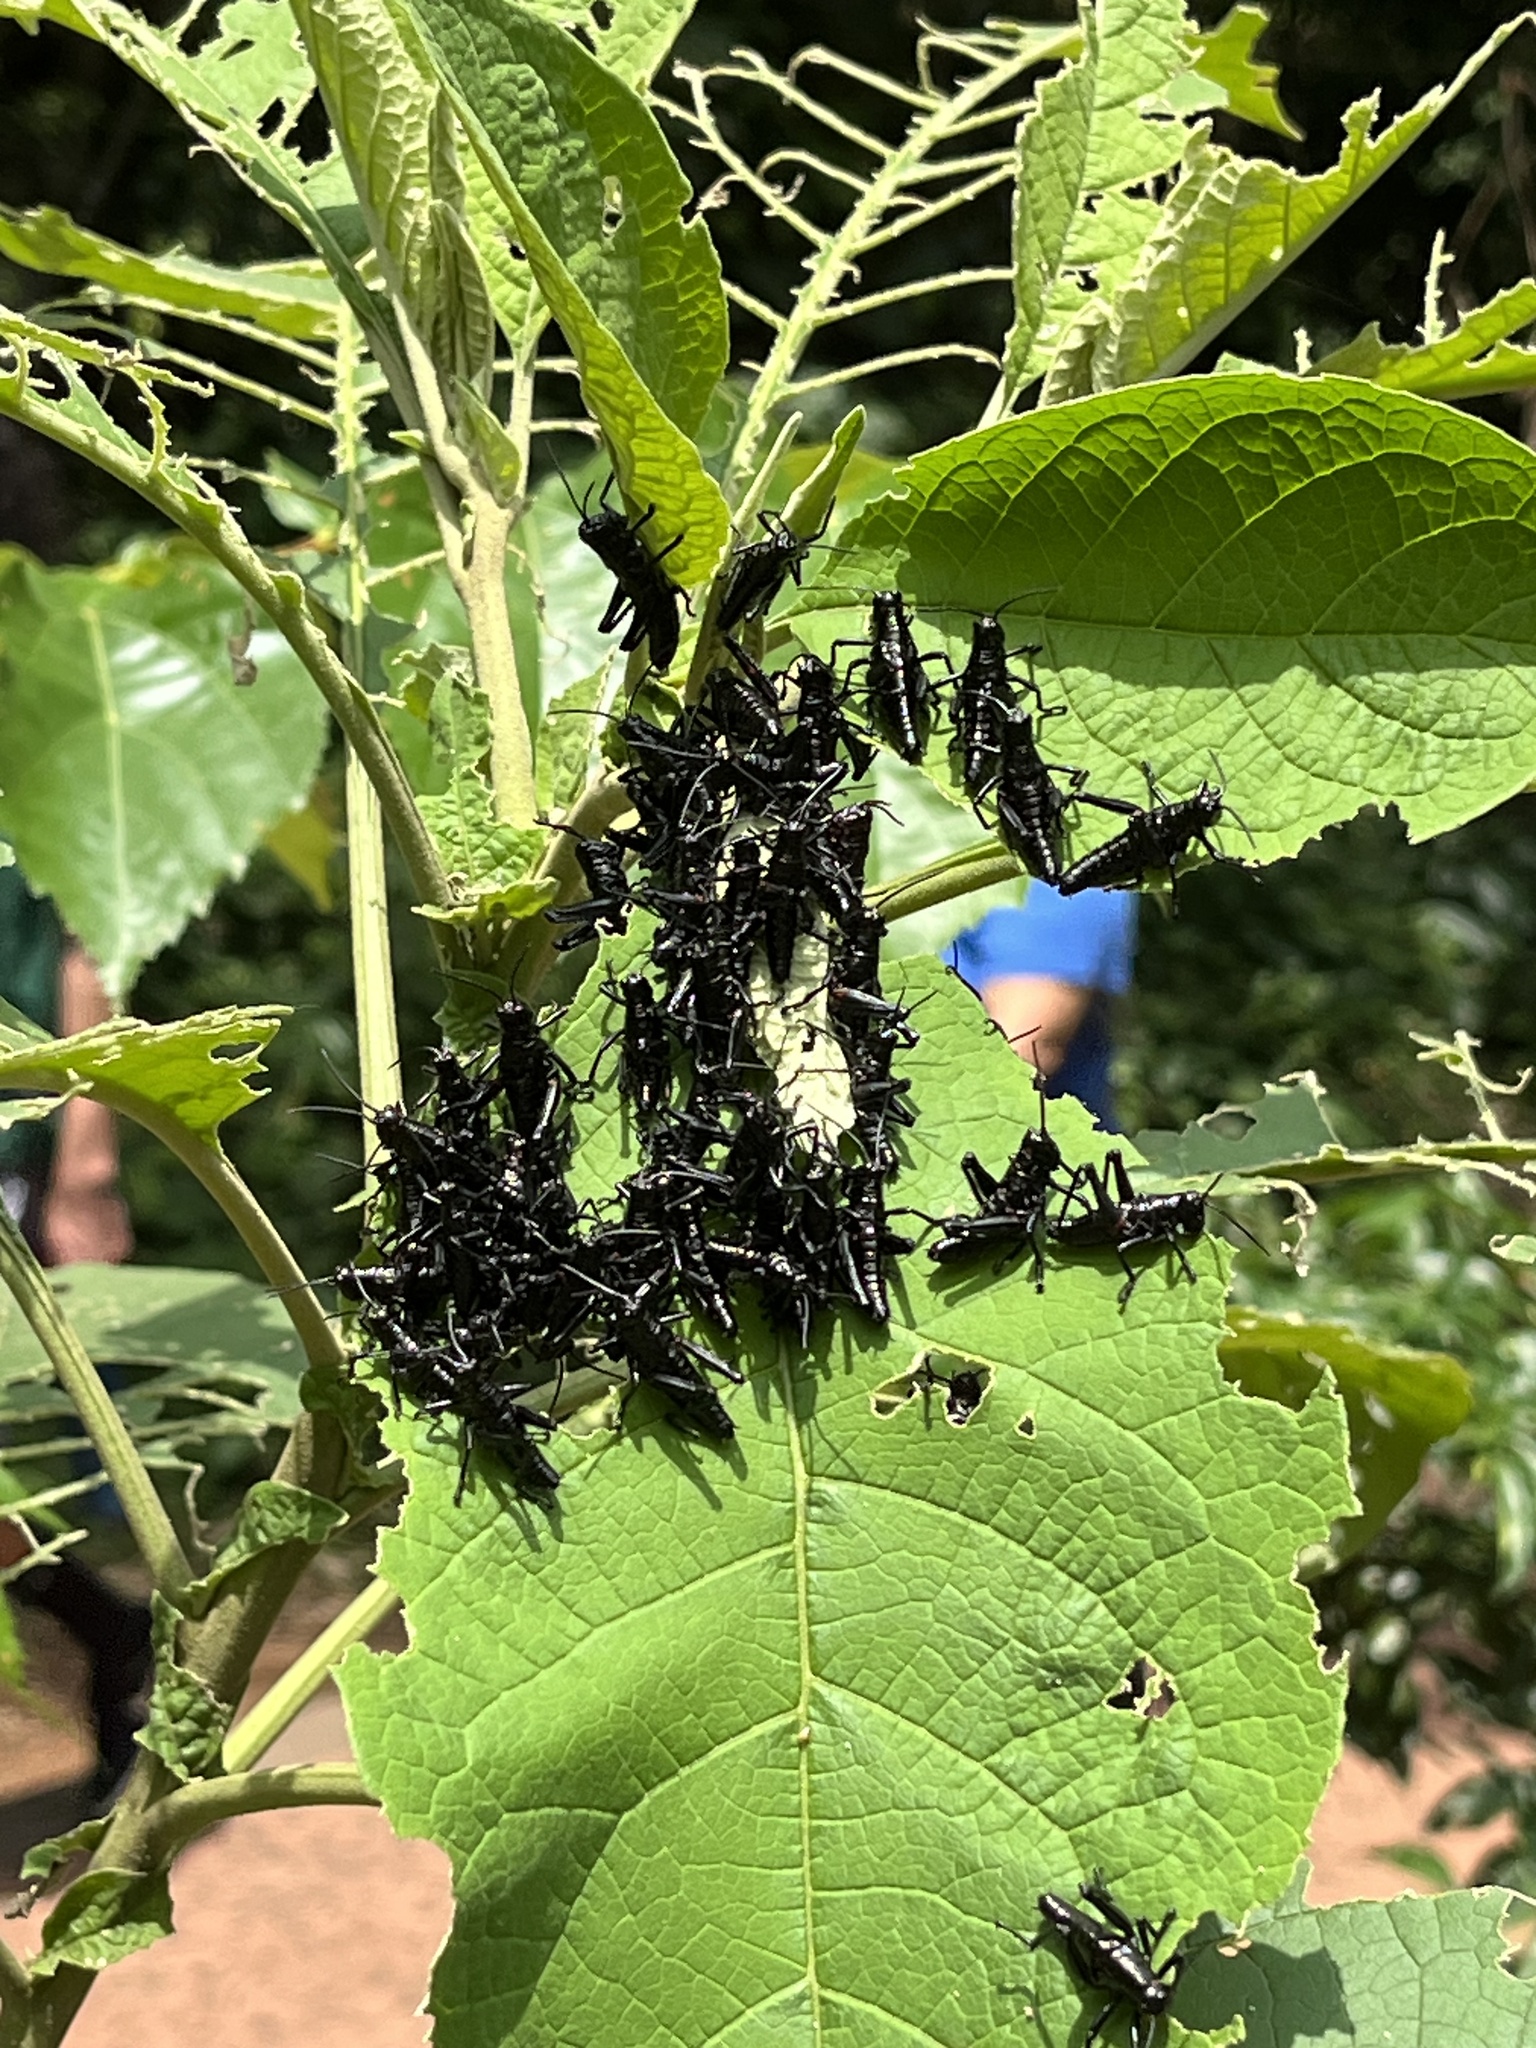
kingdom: Animalia
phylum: Arthropoda
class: Insecta
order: Orthoptera
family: Romaleidae
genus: Chromacris
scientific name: Chromacris speciosa
